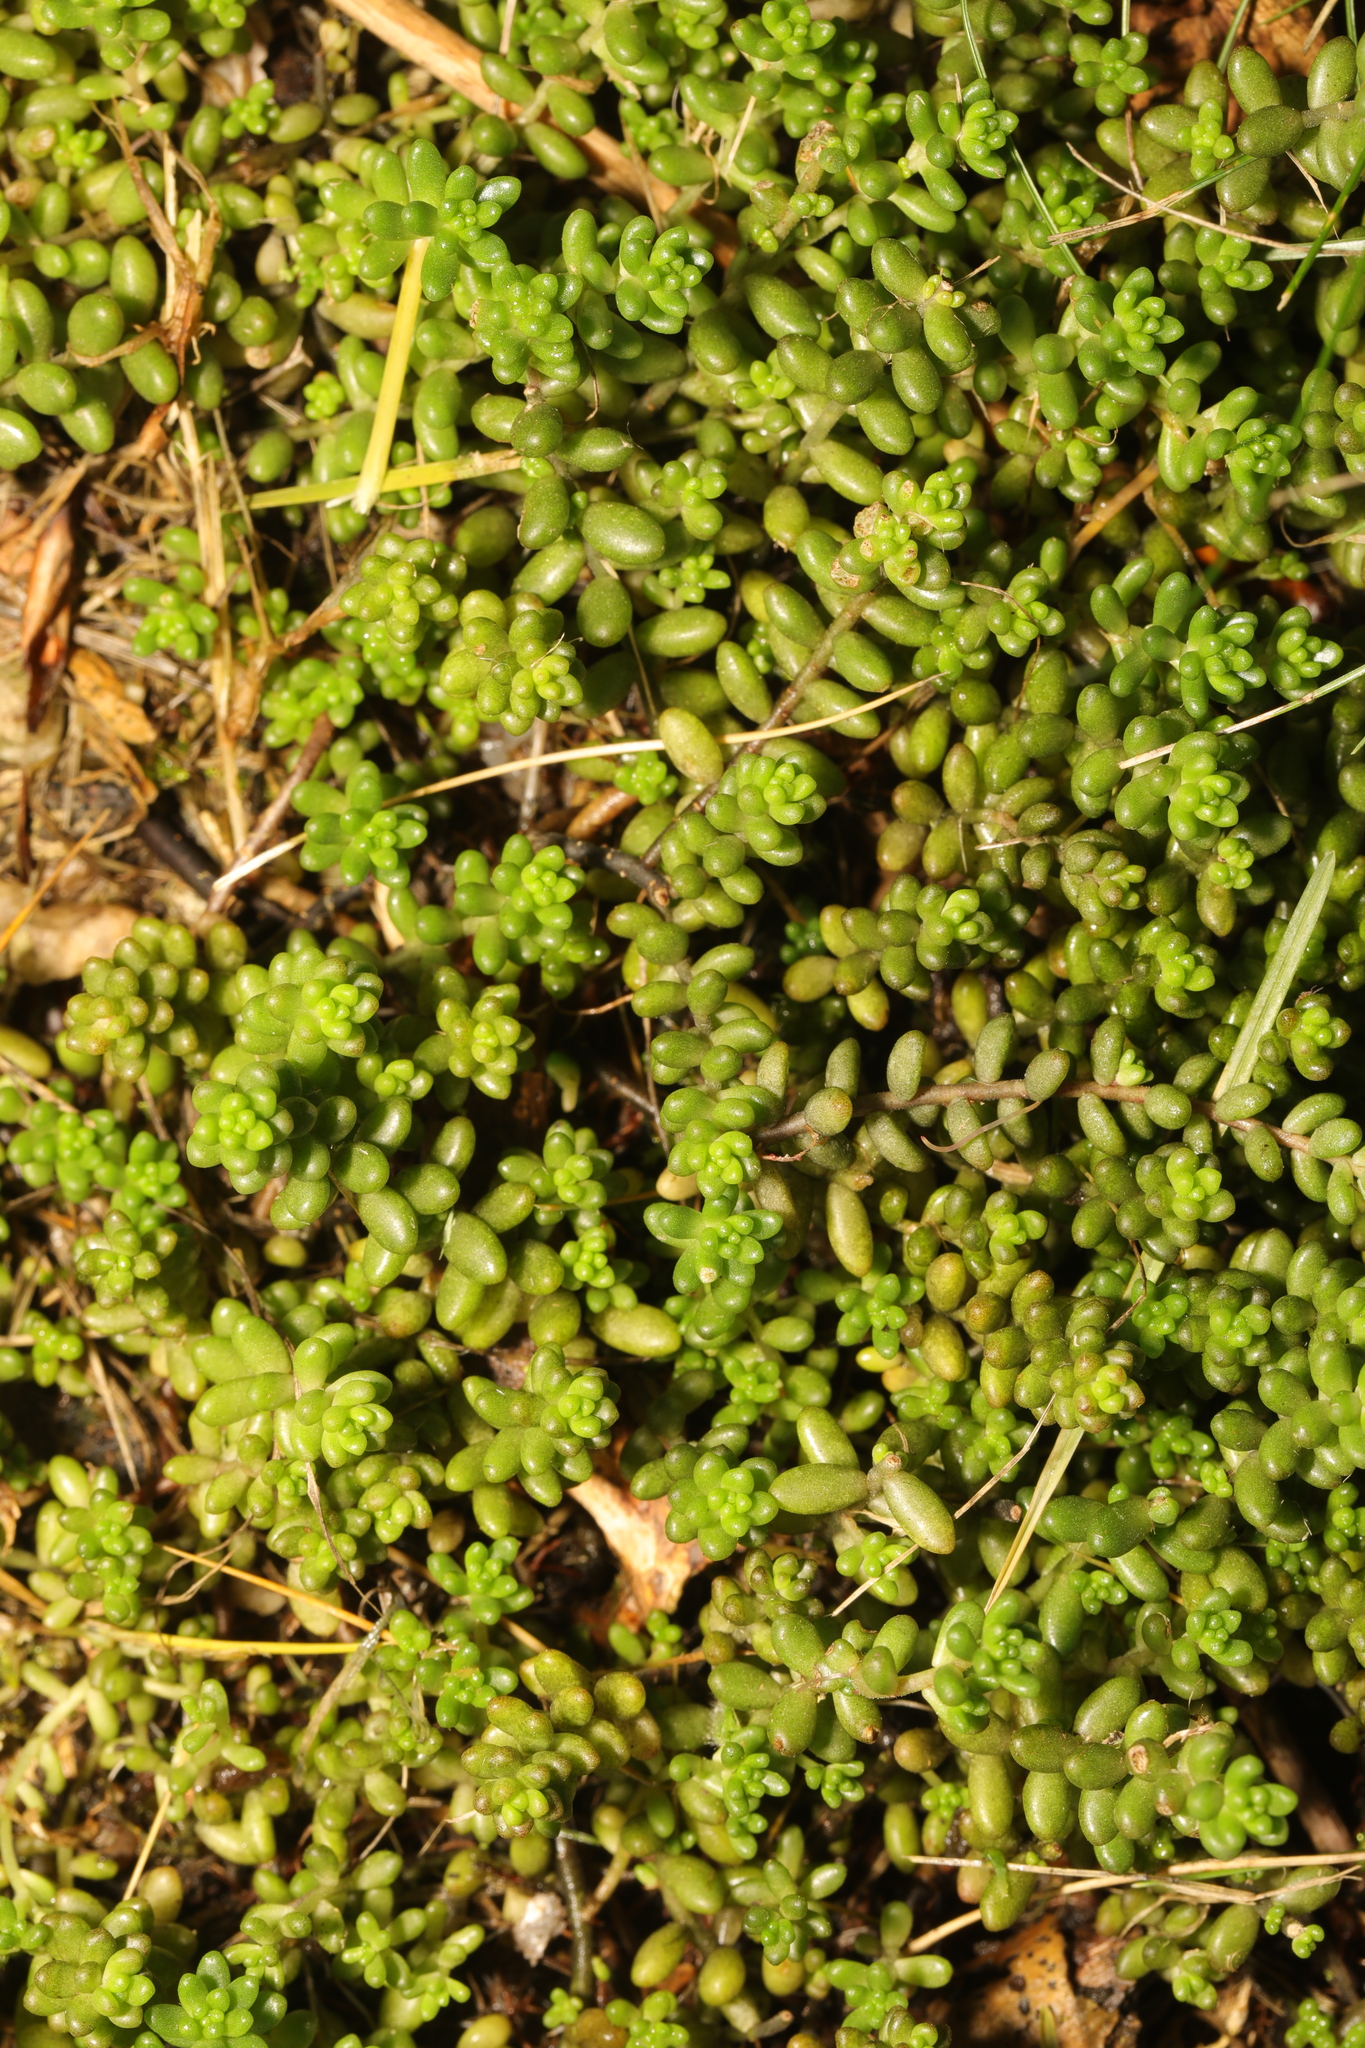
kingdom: Plantae
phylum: Tracheophyta
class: Magnoliopsida
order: Saxifragales
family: Crassulaceae
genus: Sedum
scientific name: Sedum album
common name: White stonecrop
